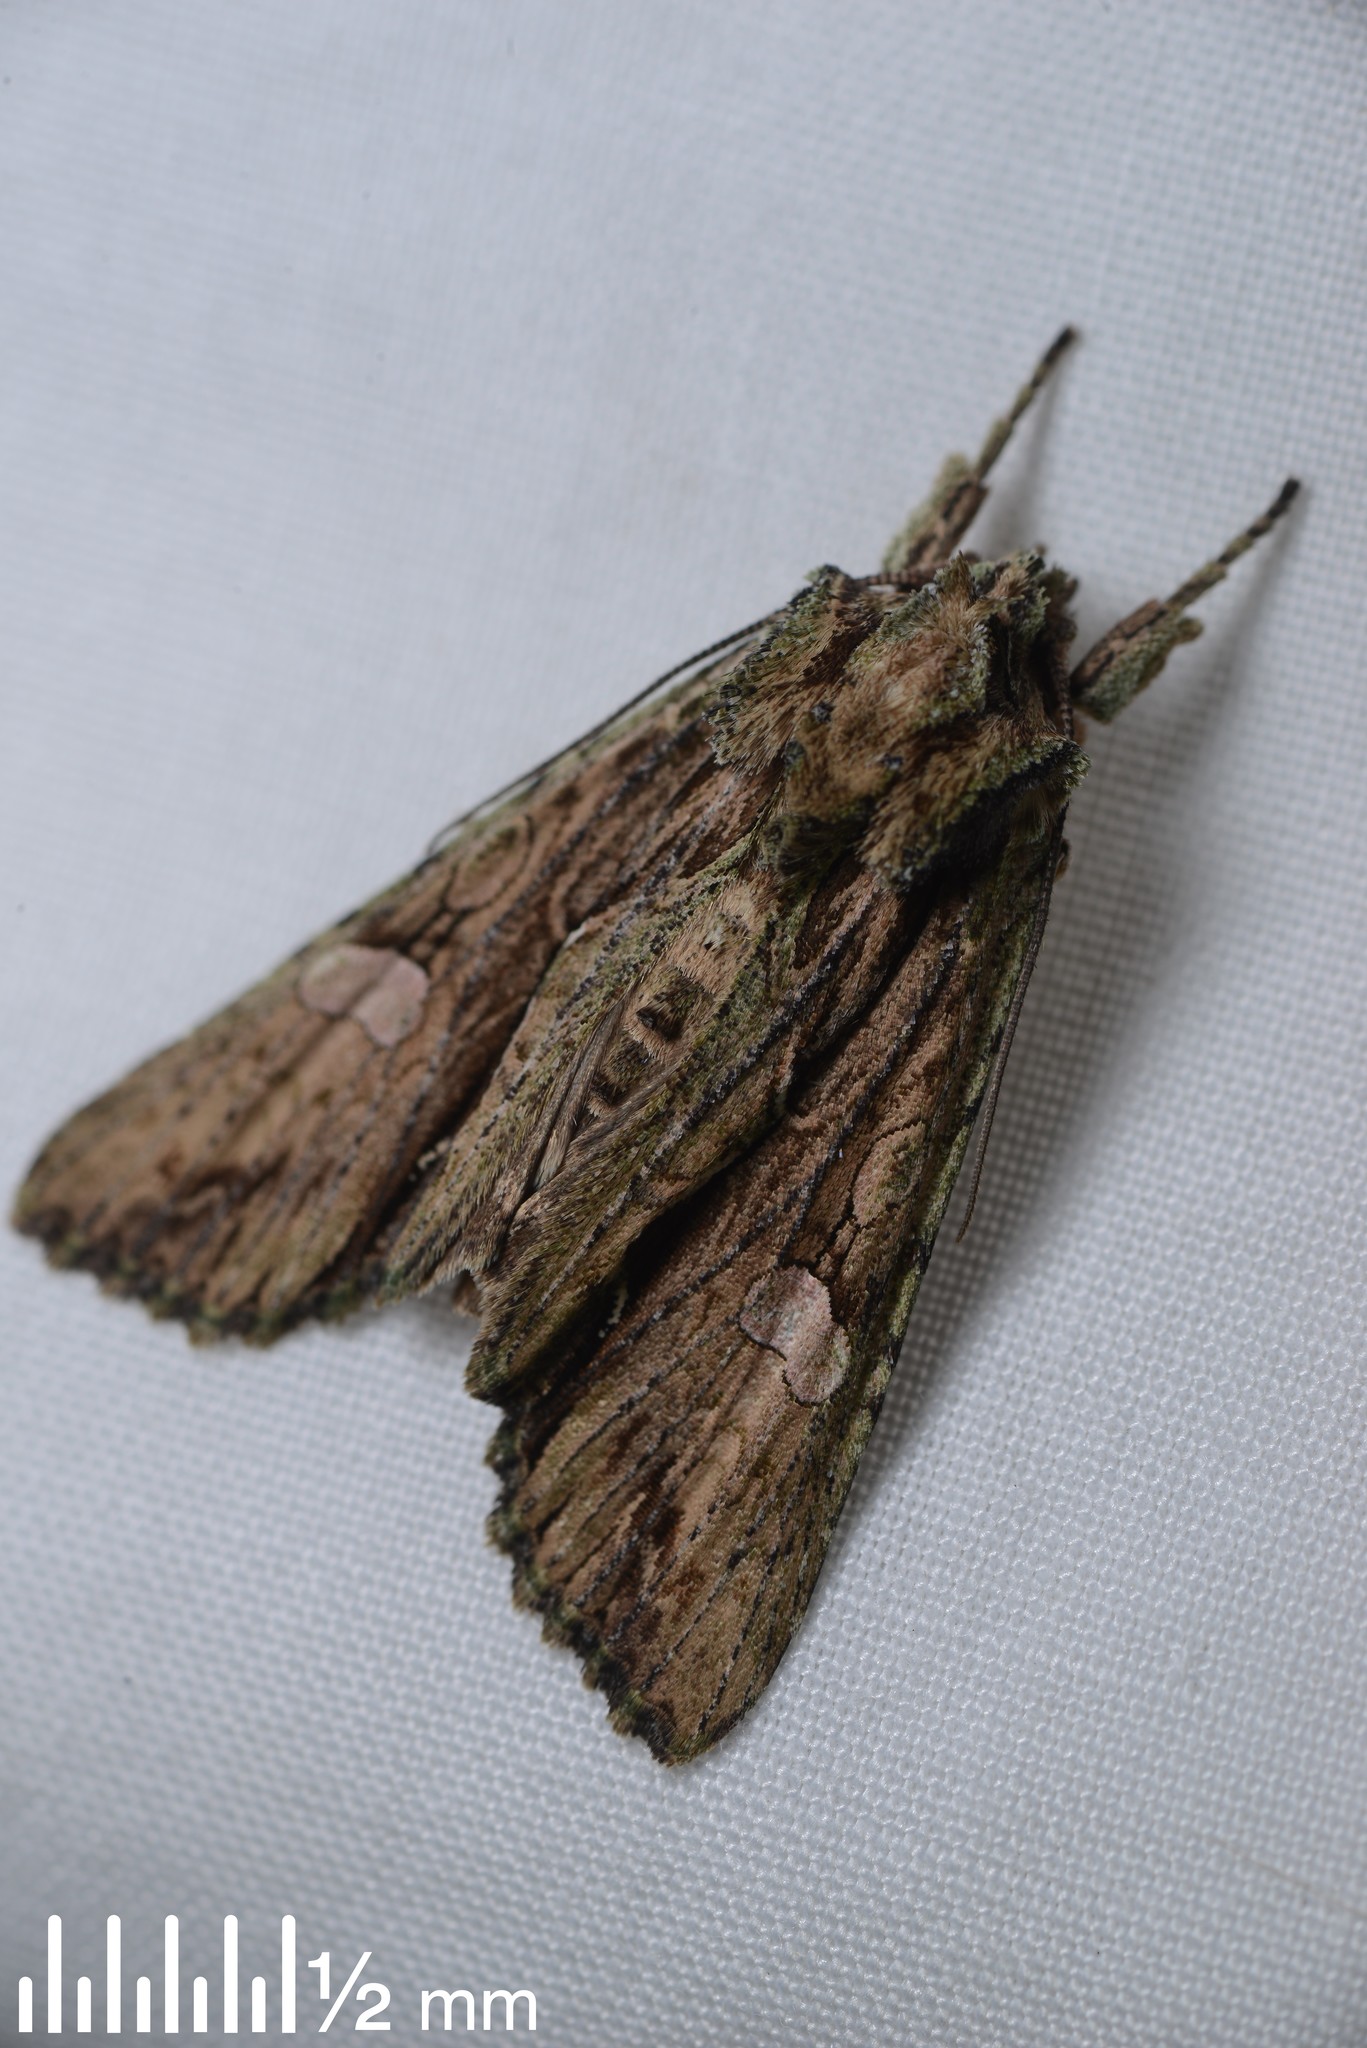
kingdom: Animalia
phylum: Arthropoda
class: Insecta
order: Lepidoptera
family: Noctuidae
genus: Meterana
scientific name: Meterana decorata
